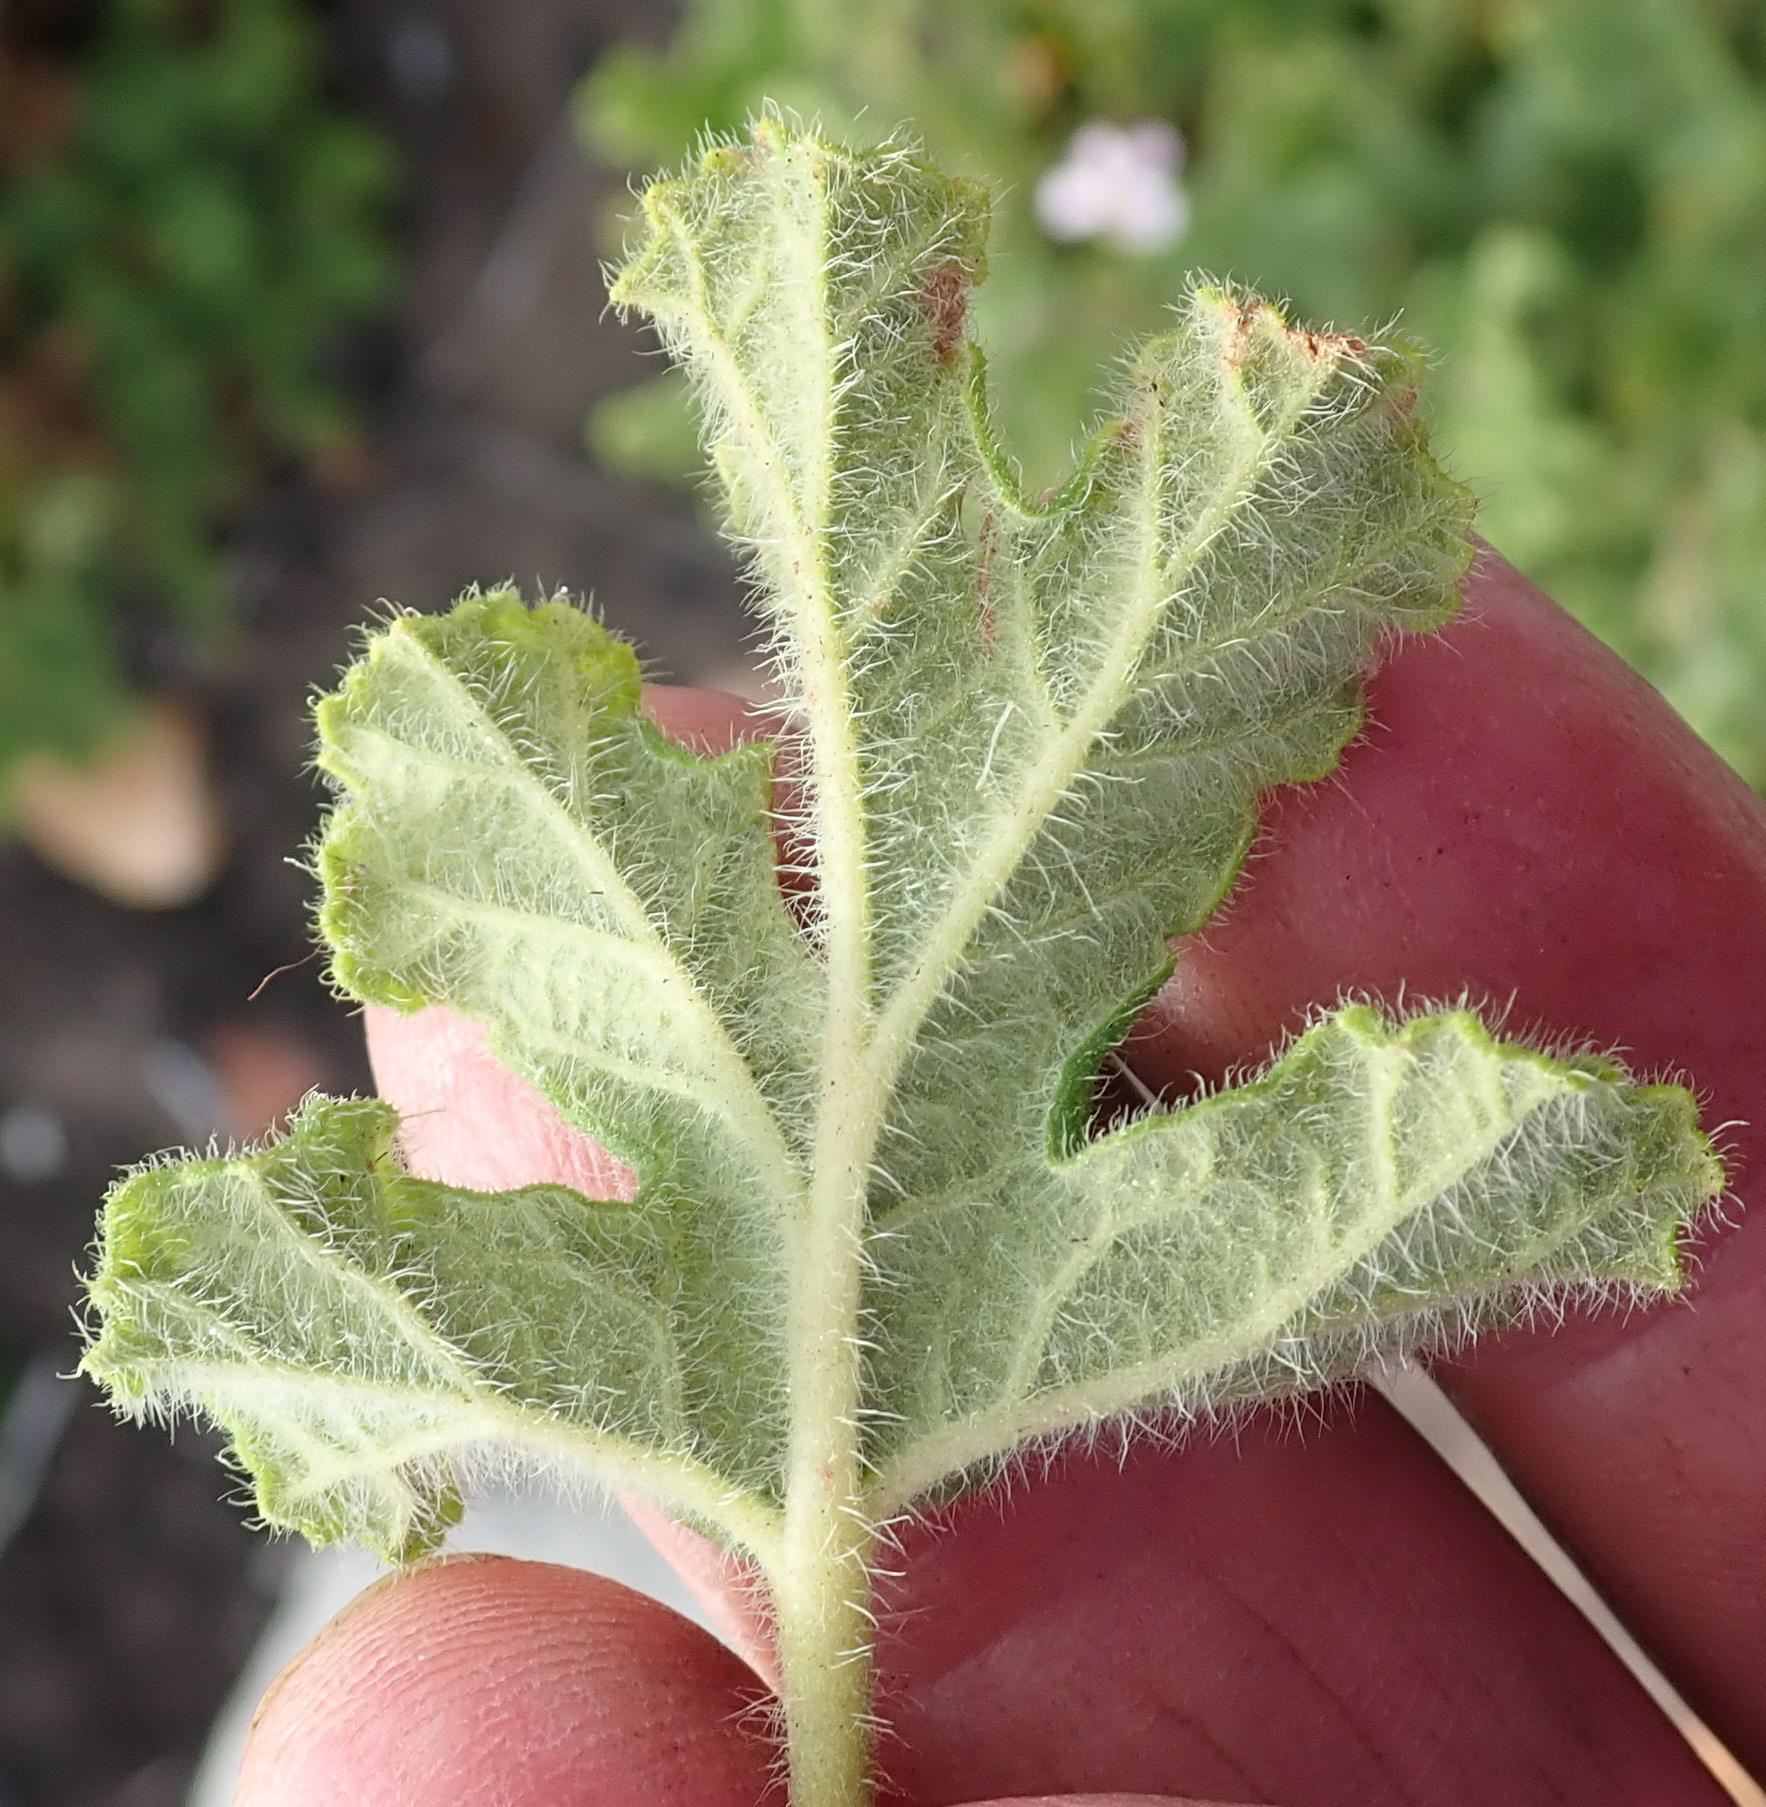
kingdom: Plantae
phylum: Tracheophyta
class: Magnoliopsida
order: Geraniales
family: Geraniaceae
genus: Pelargonium
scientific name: Pelargonium panduriforme
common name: Oakleaf garden geranium
